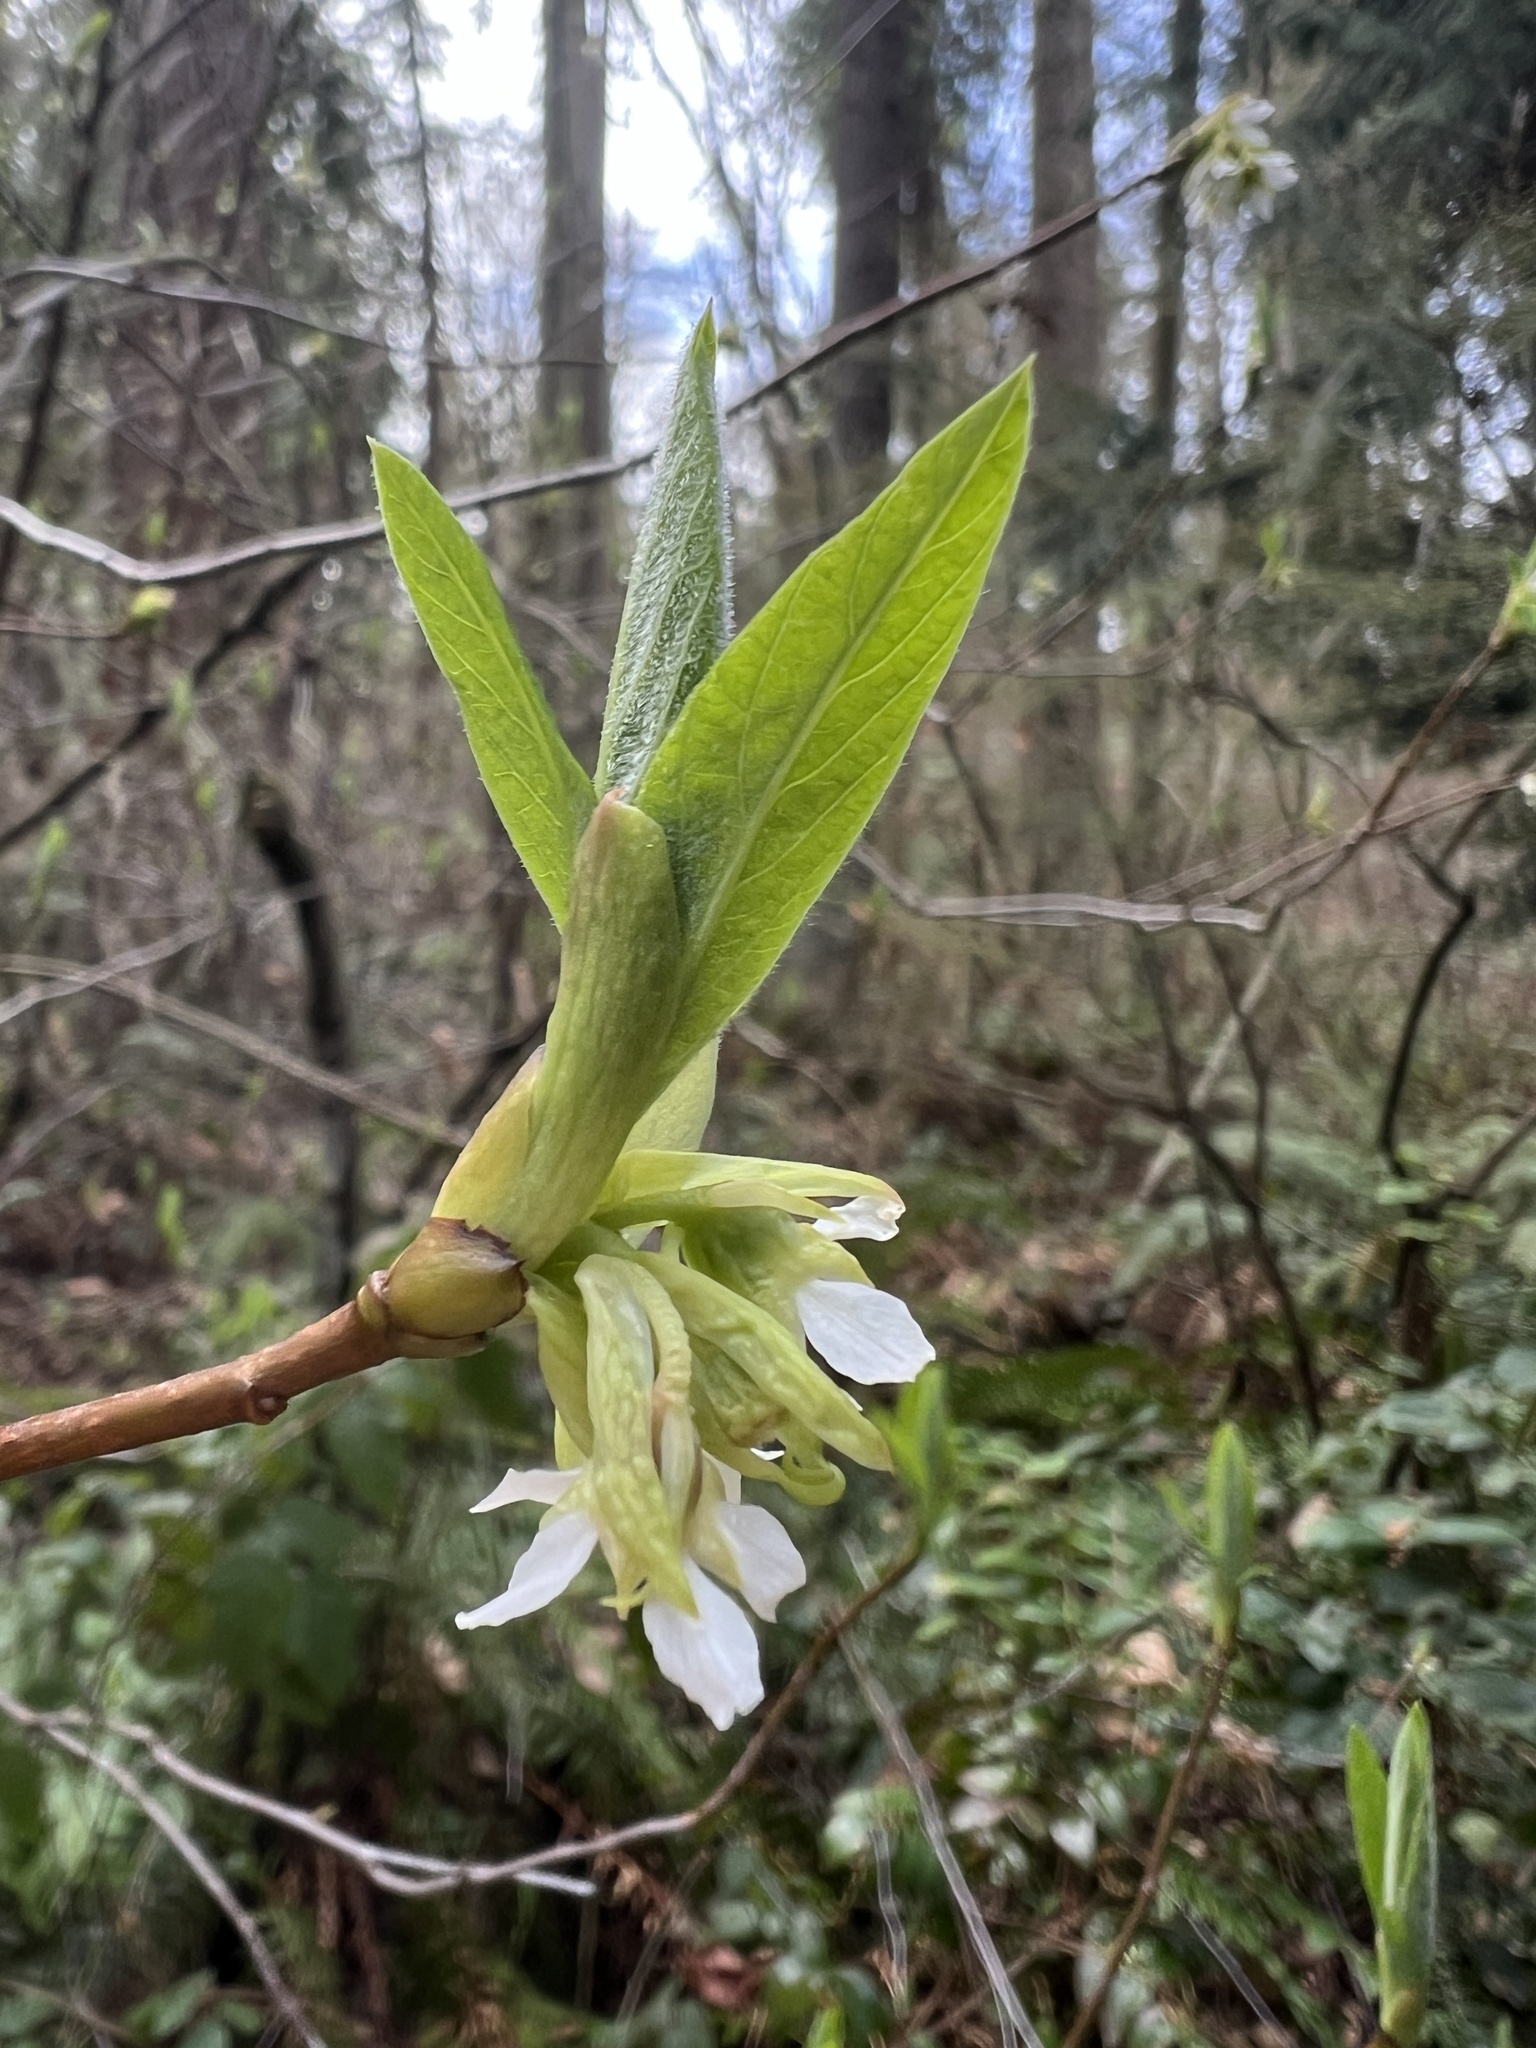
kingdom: Plantae
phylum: Tracheophyta
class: Magnoliopsida
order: Rosales
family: Rosaceae
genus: Oemleria
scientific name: Oemleria cerasiformis
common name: Osoberry
